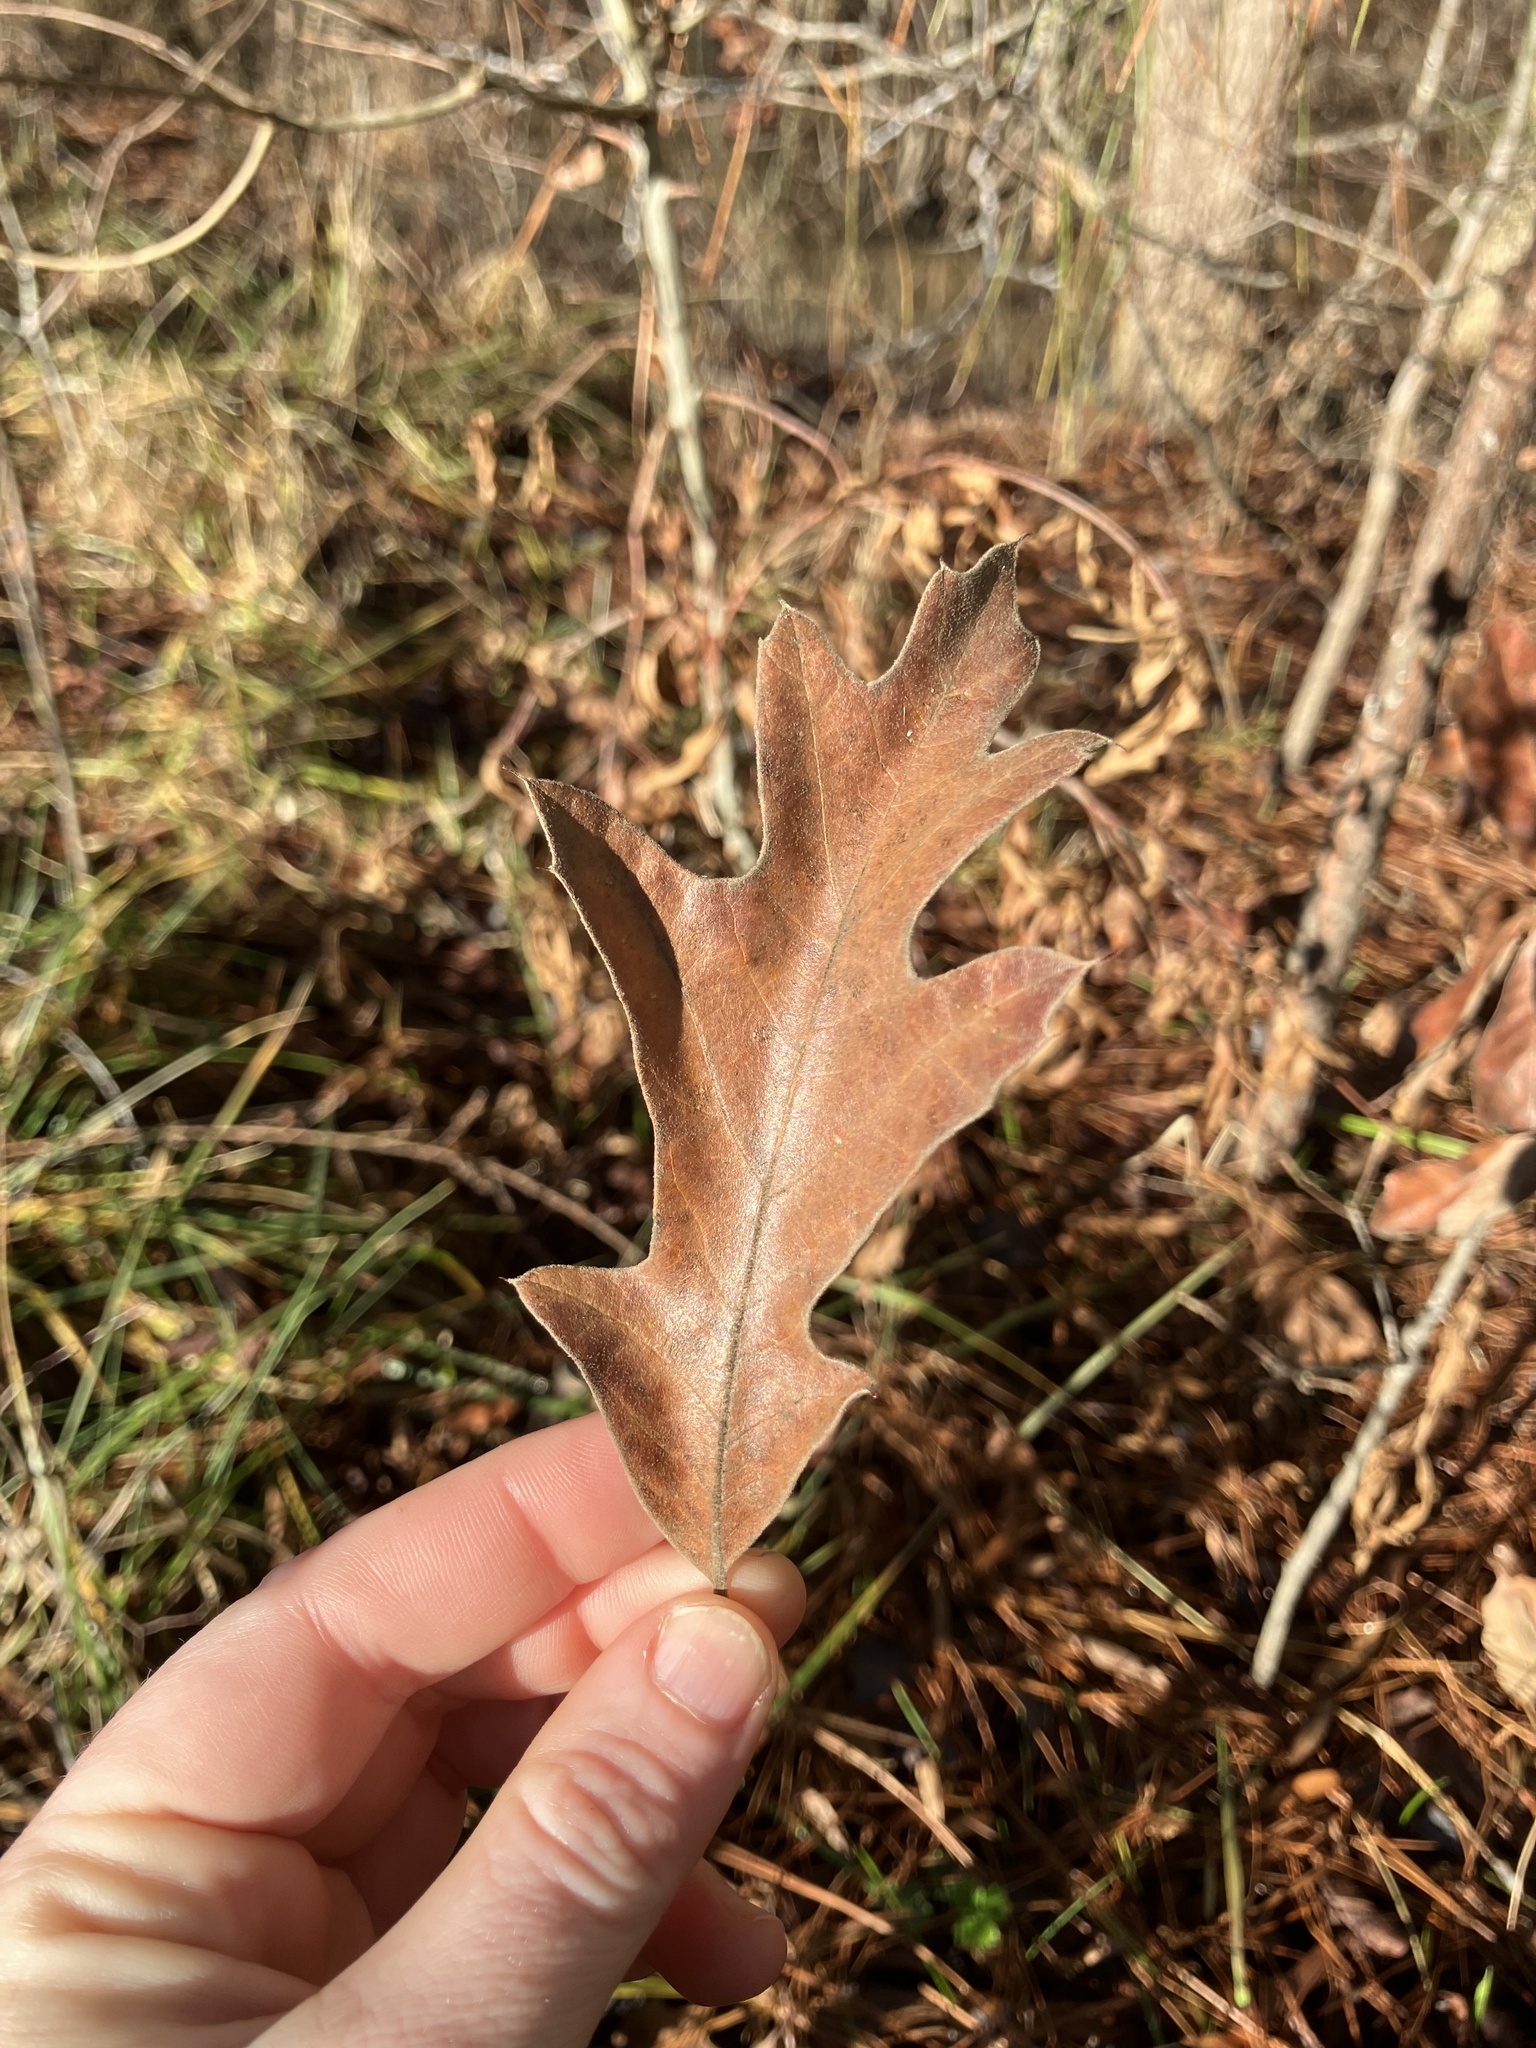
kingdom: Plantae
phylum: Tracheophyta
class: Magnoliopsida
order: Fagales
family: Fagaceae
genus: Quercus
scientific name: Quercus falcata
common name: Southern red oak
